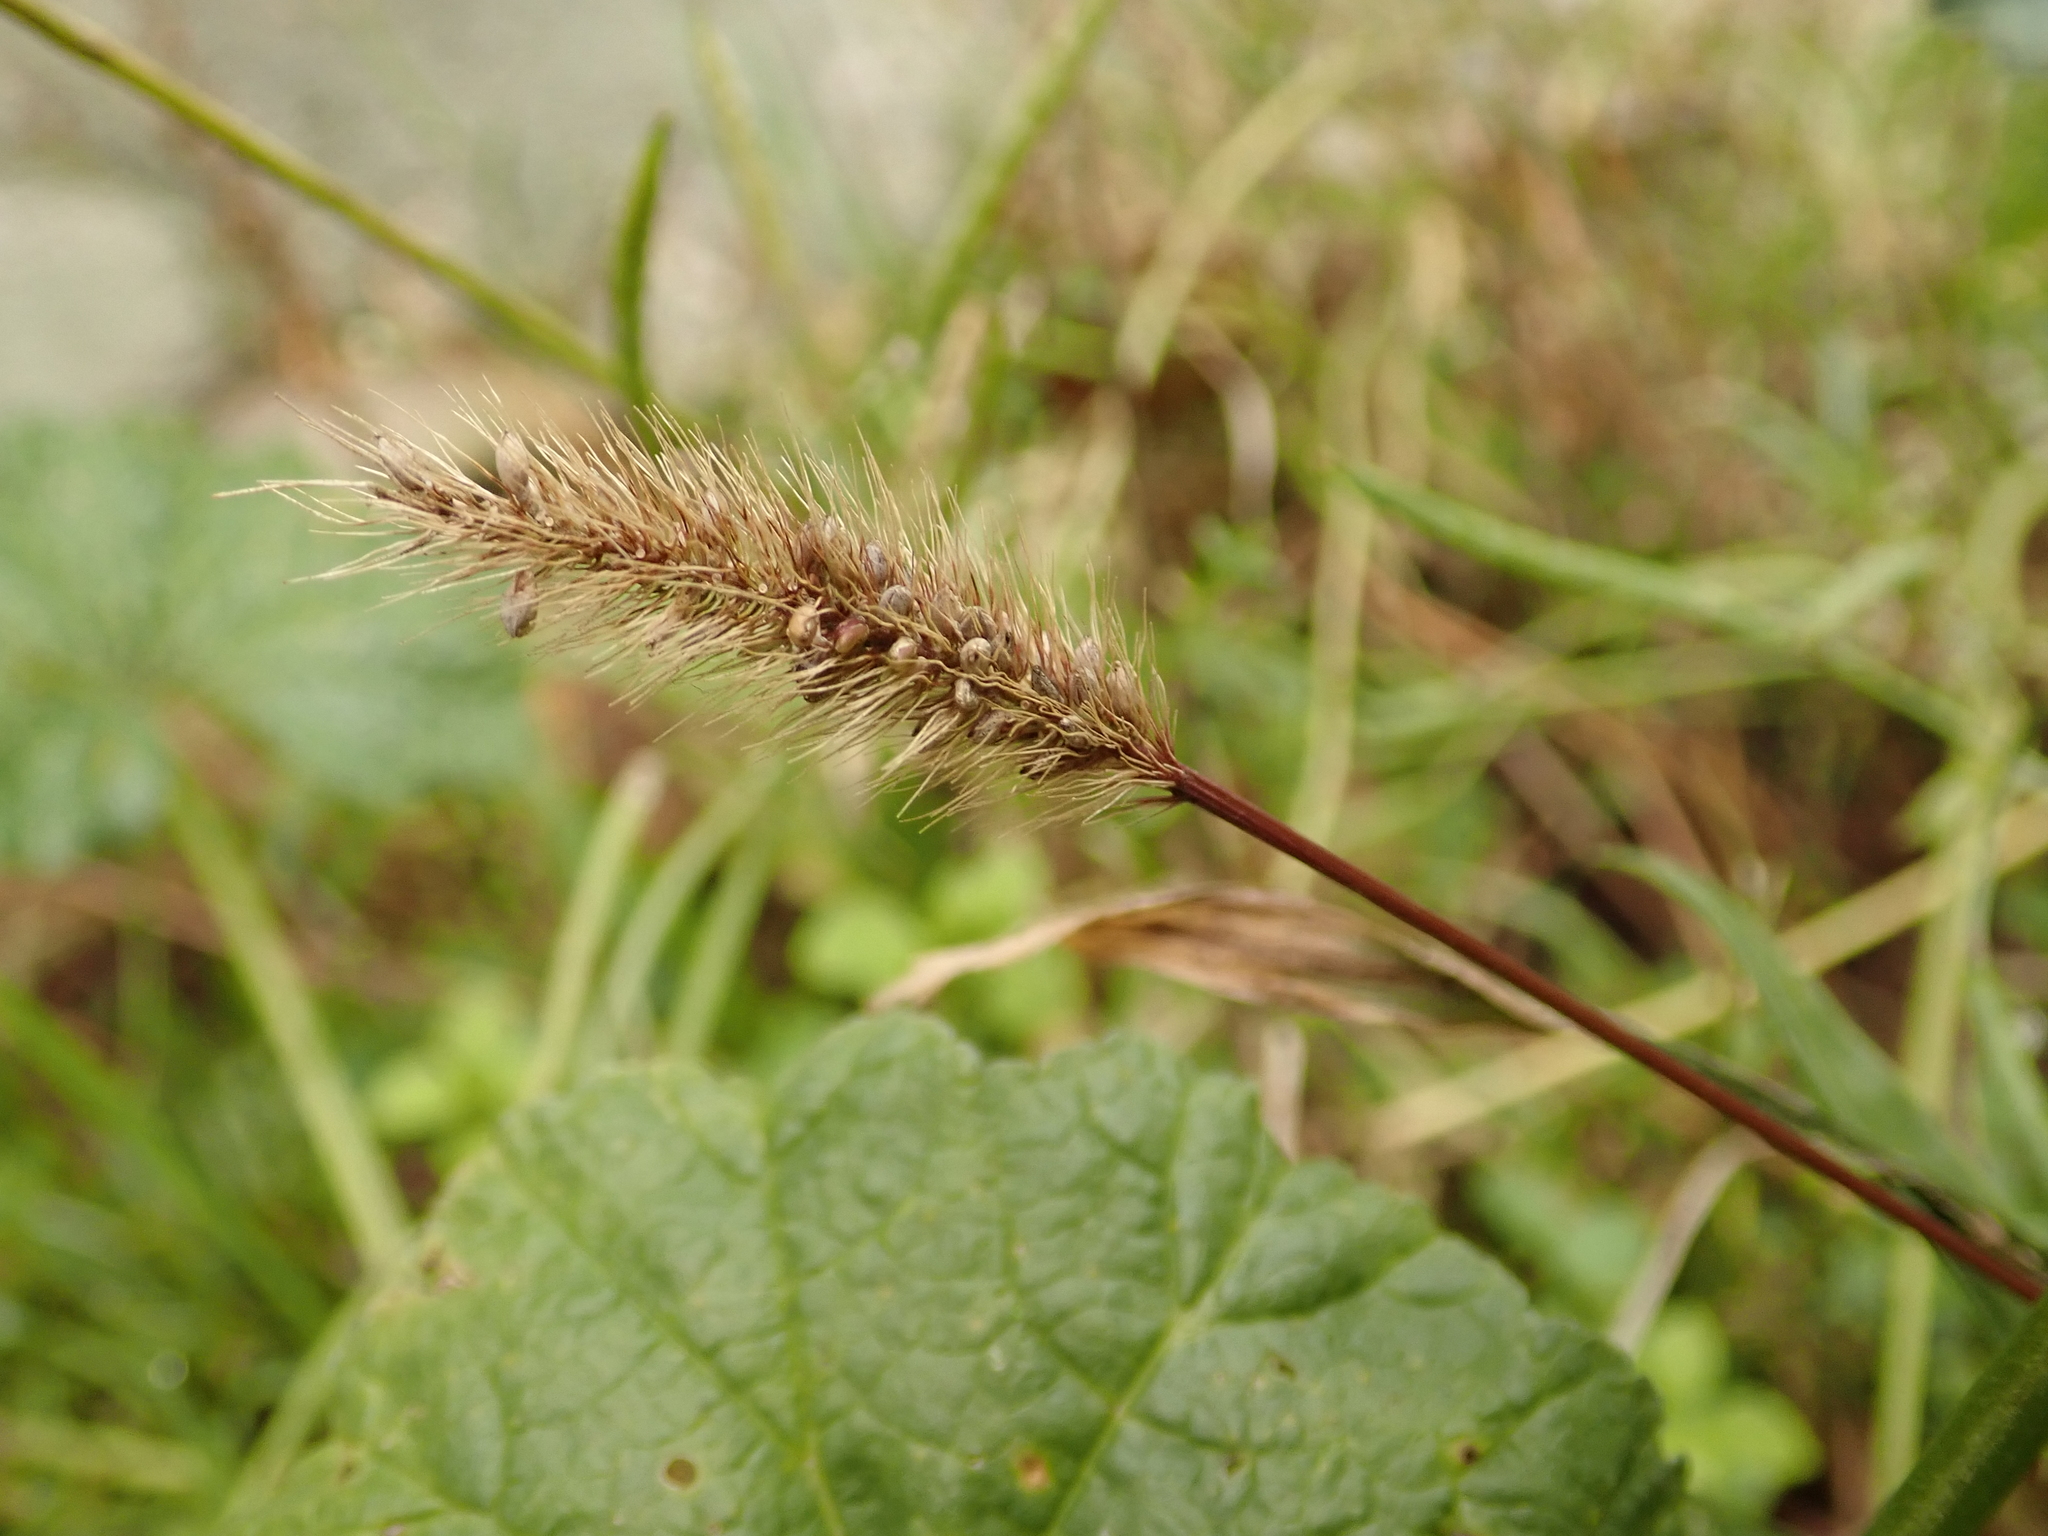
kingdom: Plantae
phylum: Tracheophyta
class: Liliopsida
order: Poales
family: Poaceae
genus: Setaria
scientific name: Setaria viridis
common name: Green bristlegrass
